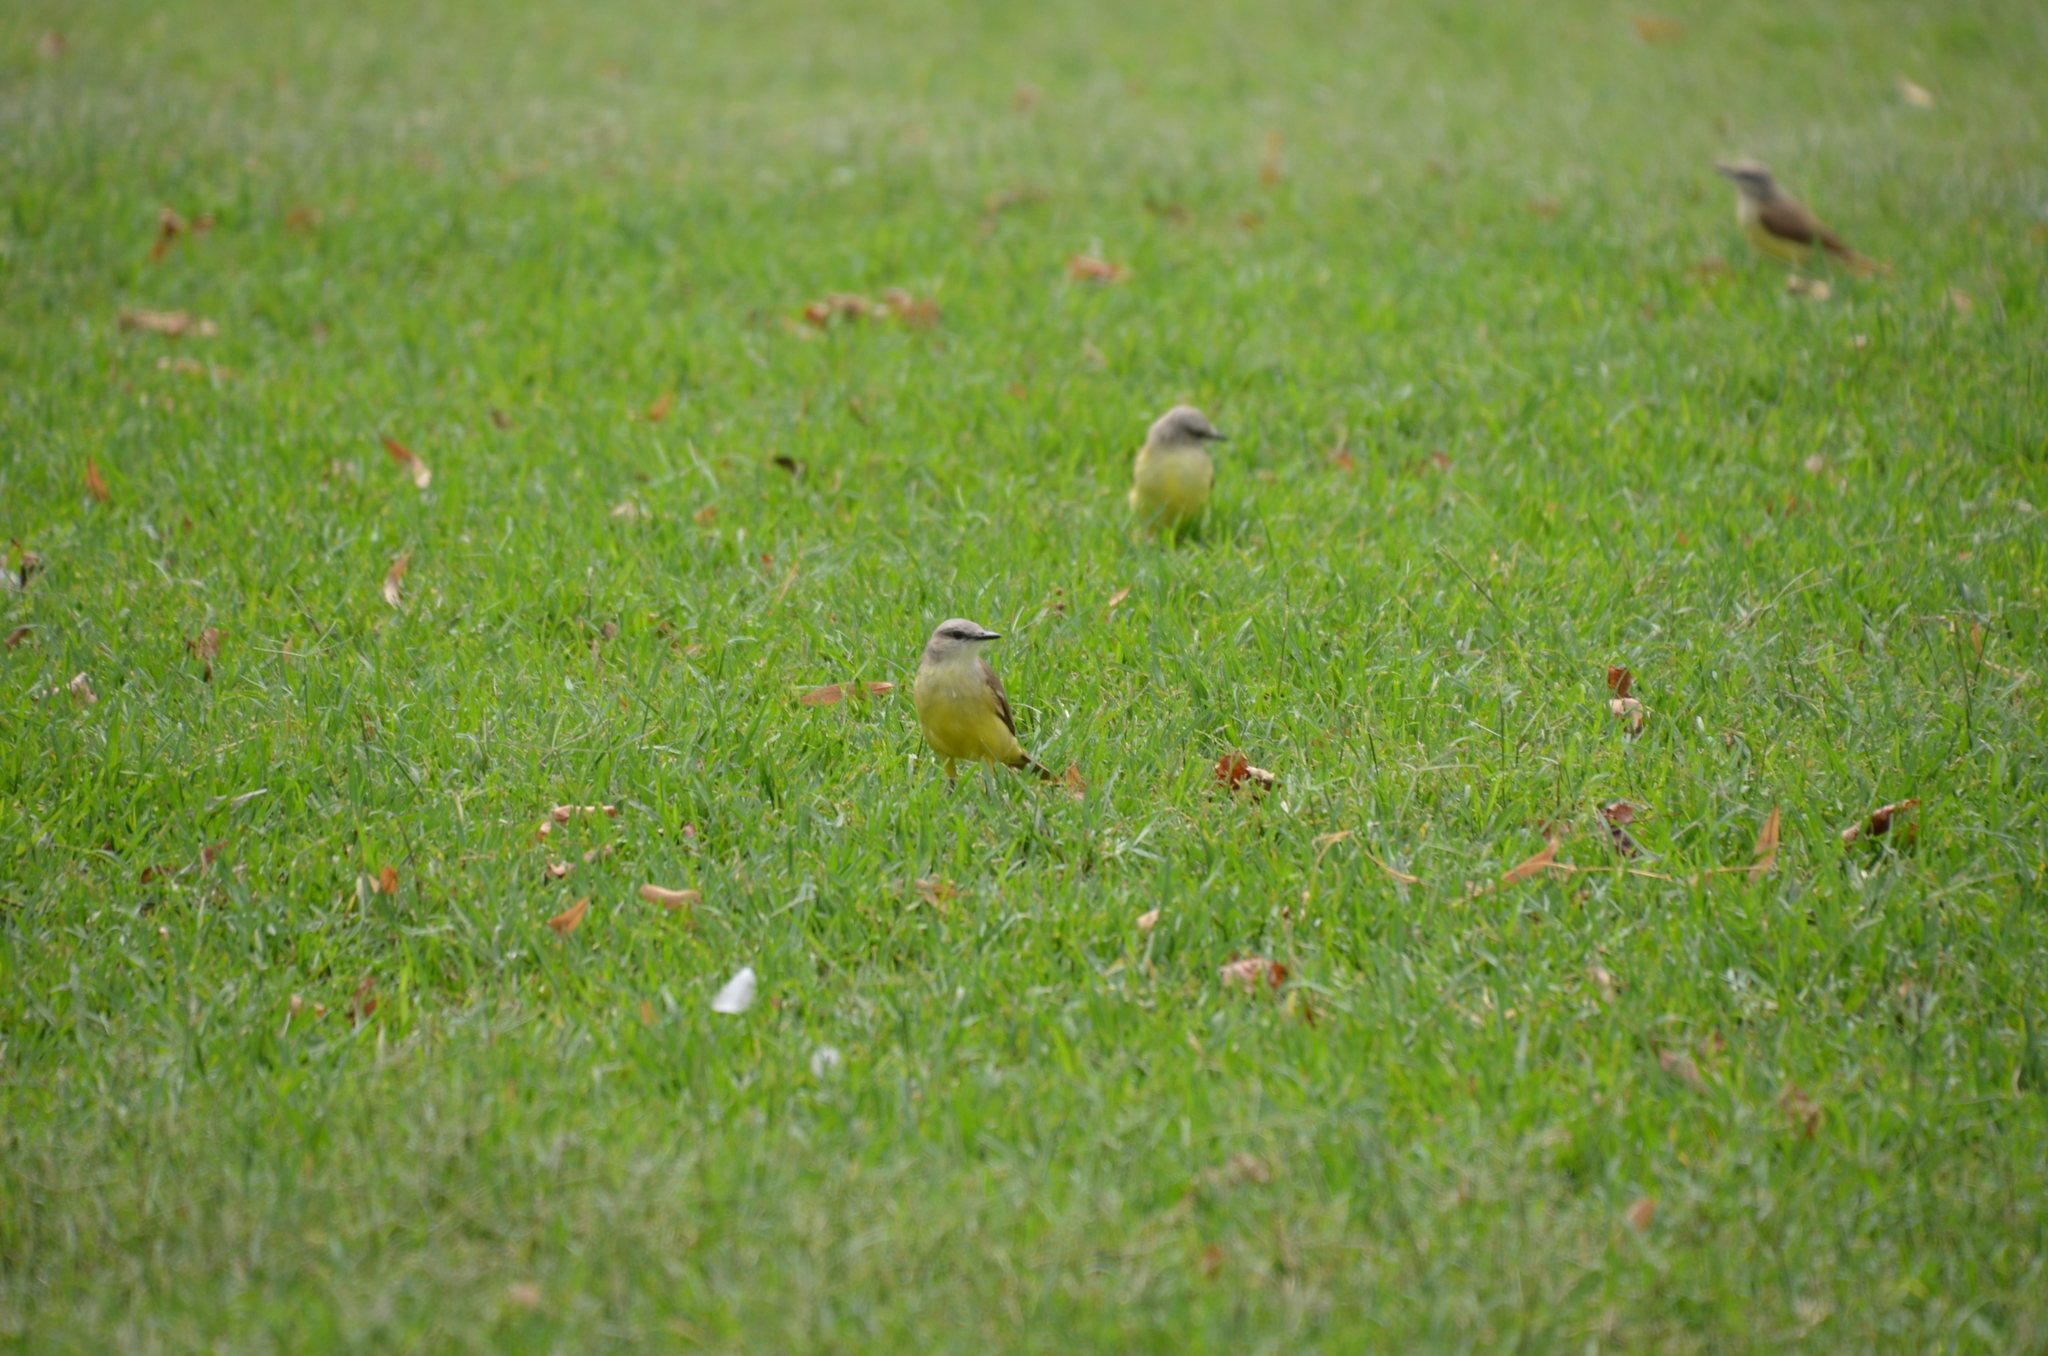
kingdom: Animalia
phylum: Chordata
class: Aves
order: Passeriformes
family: Tyrannidae
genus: Machetornis
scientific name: Machetornis rixosa
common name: Cattle tyrant
